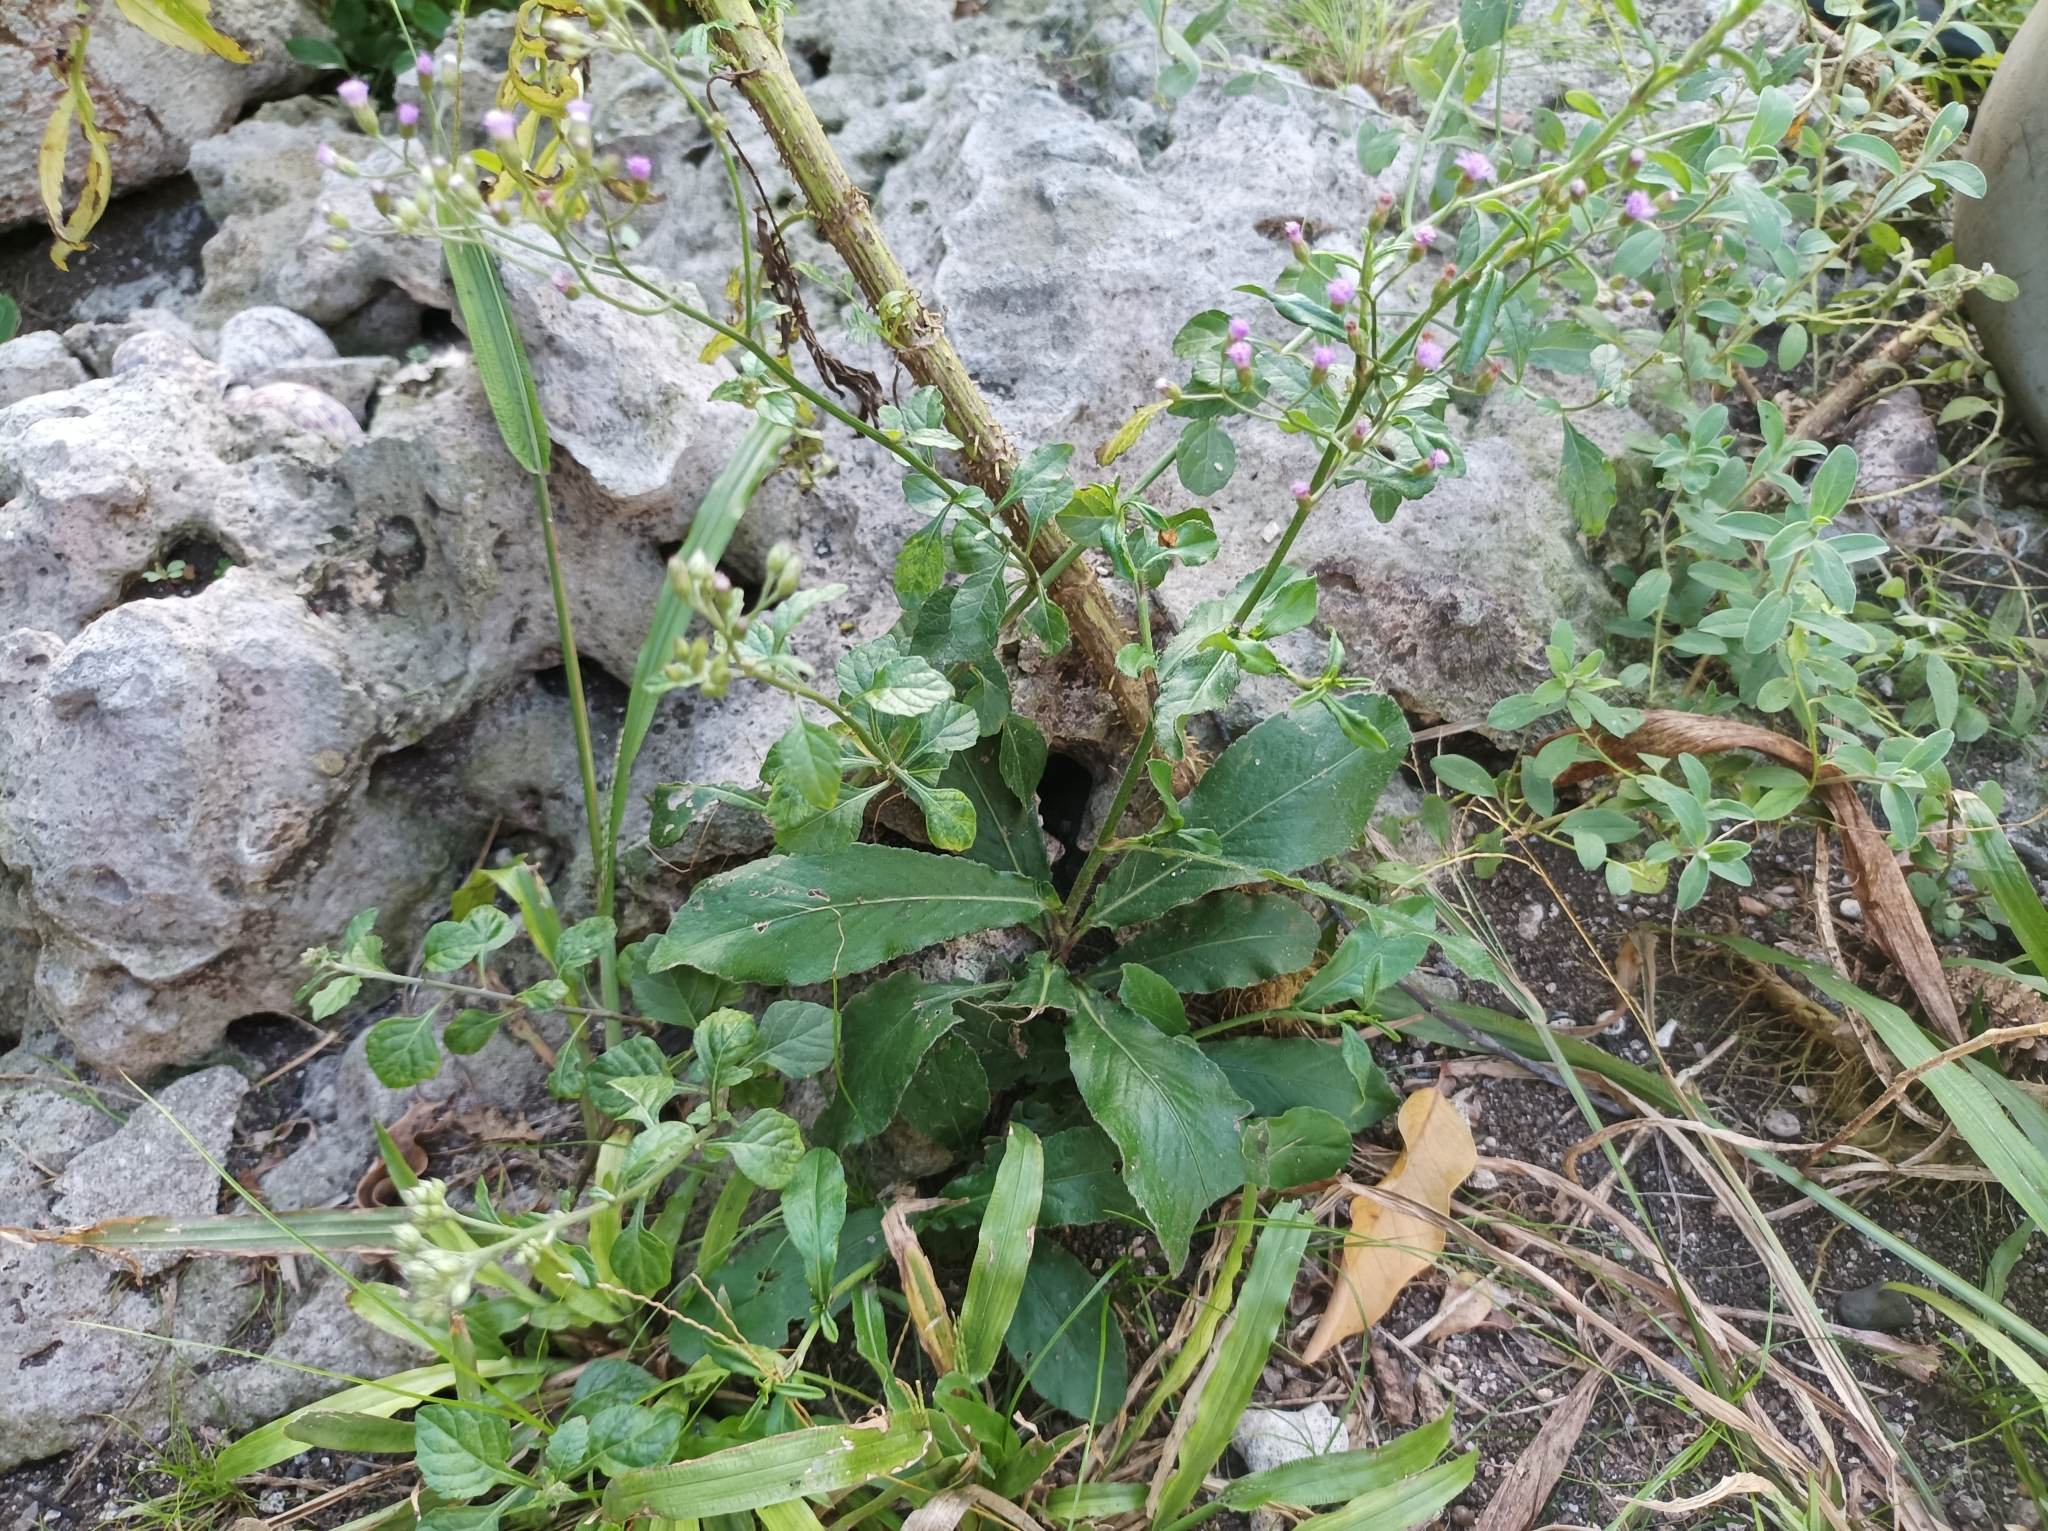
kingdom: Plantae
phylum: Tracheophyta
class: Magnoliopsida
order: Asterales
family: Asteraceae
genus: Cyanthillium
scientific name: Cyanthillium cinereum
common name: Little ironweed
